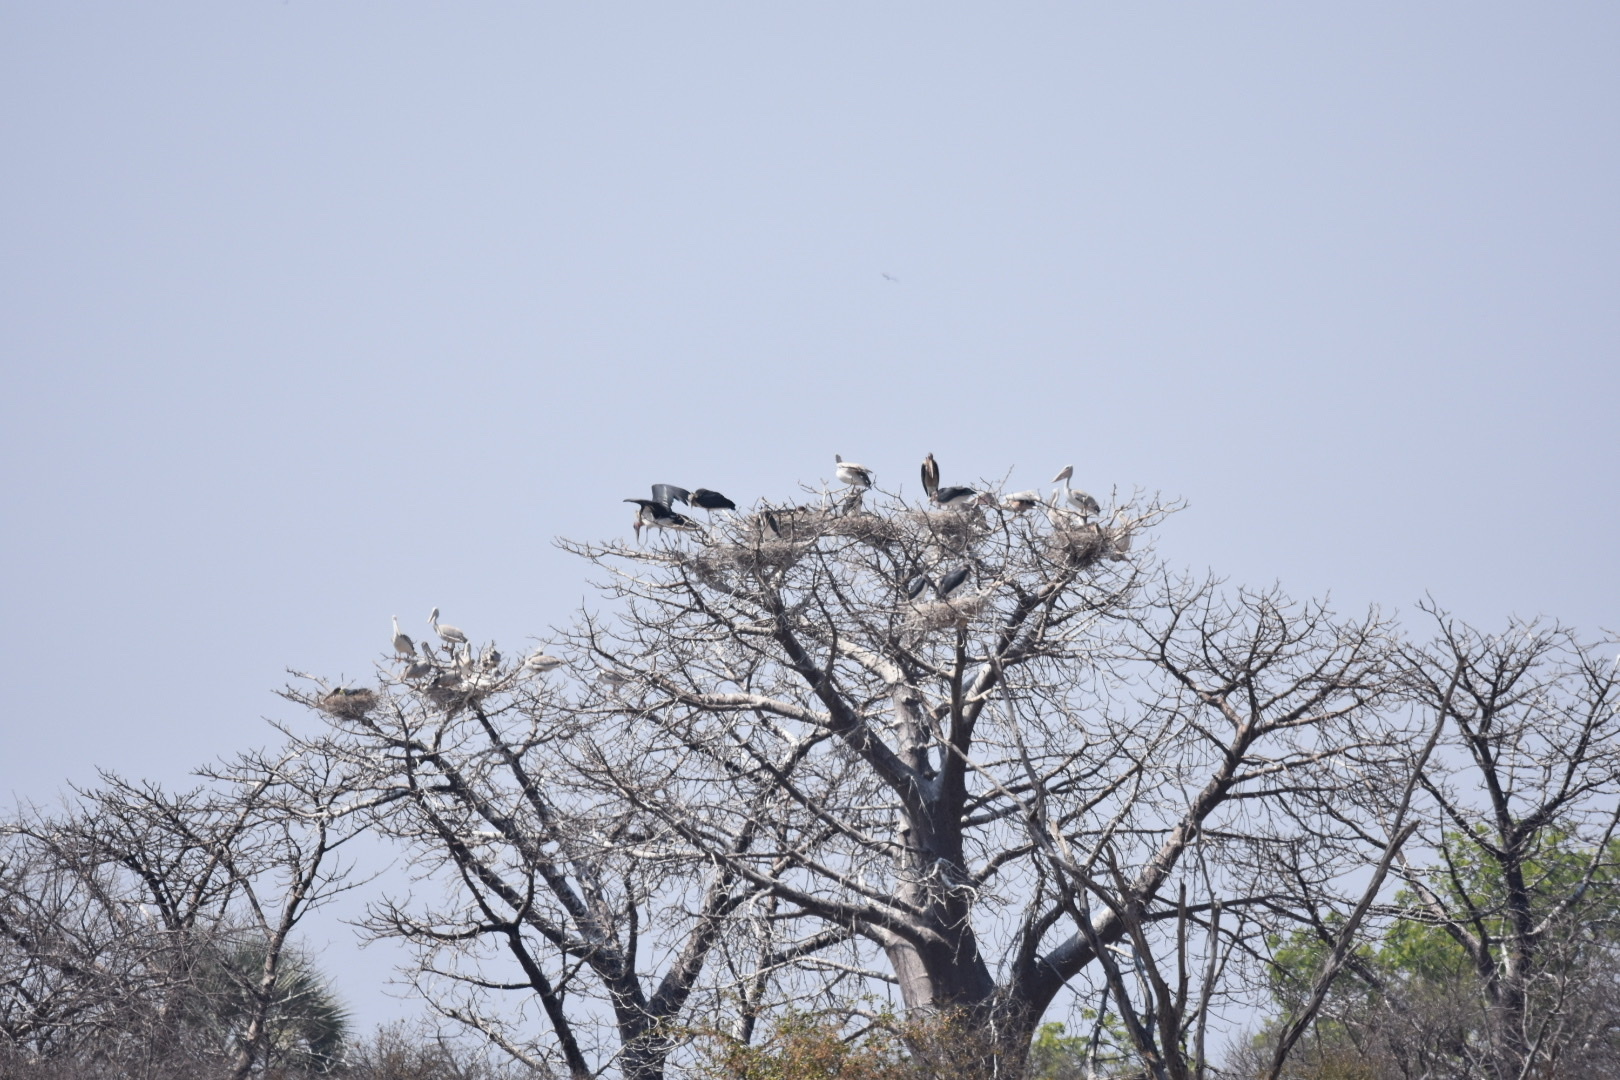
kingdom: Animalia
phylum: Chordata
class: Aves
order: Ciconiiformes
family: Ciconiidae
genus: Leptoptilos
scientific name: Leptoptilos crumenifer
